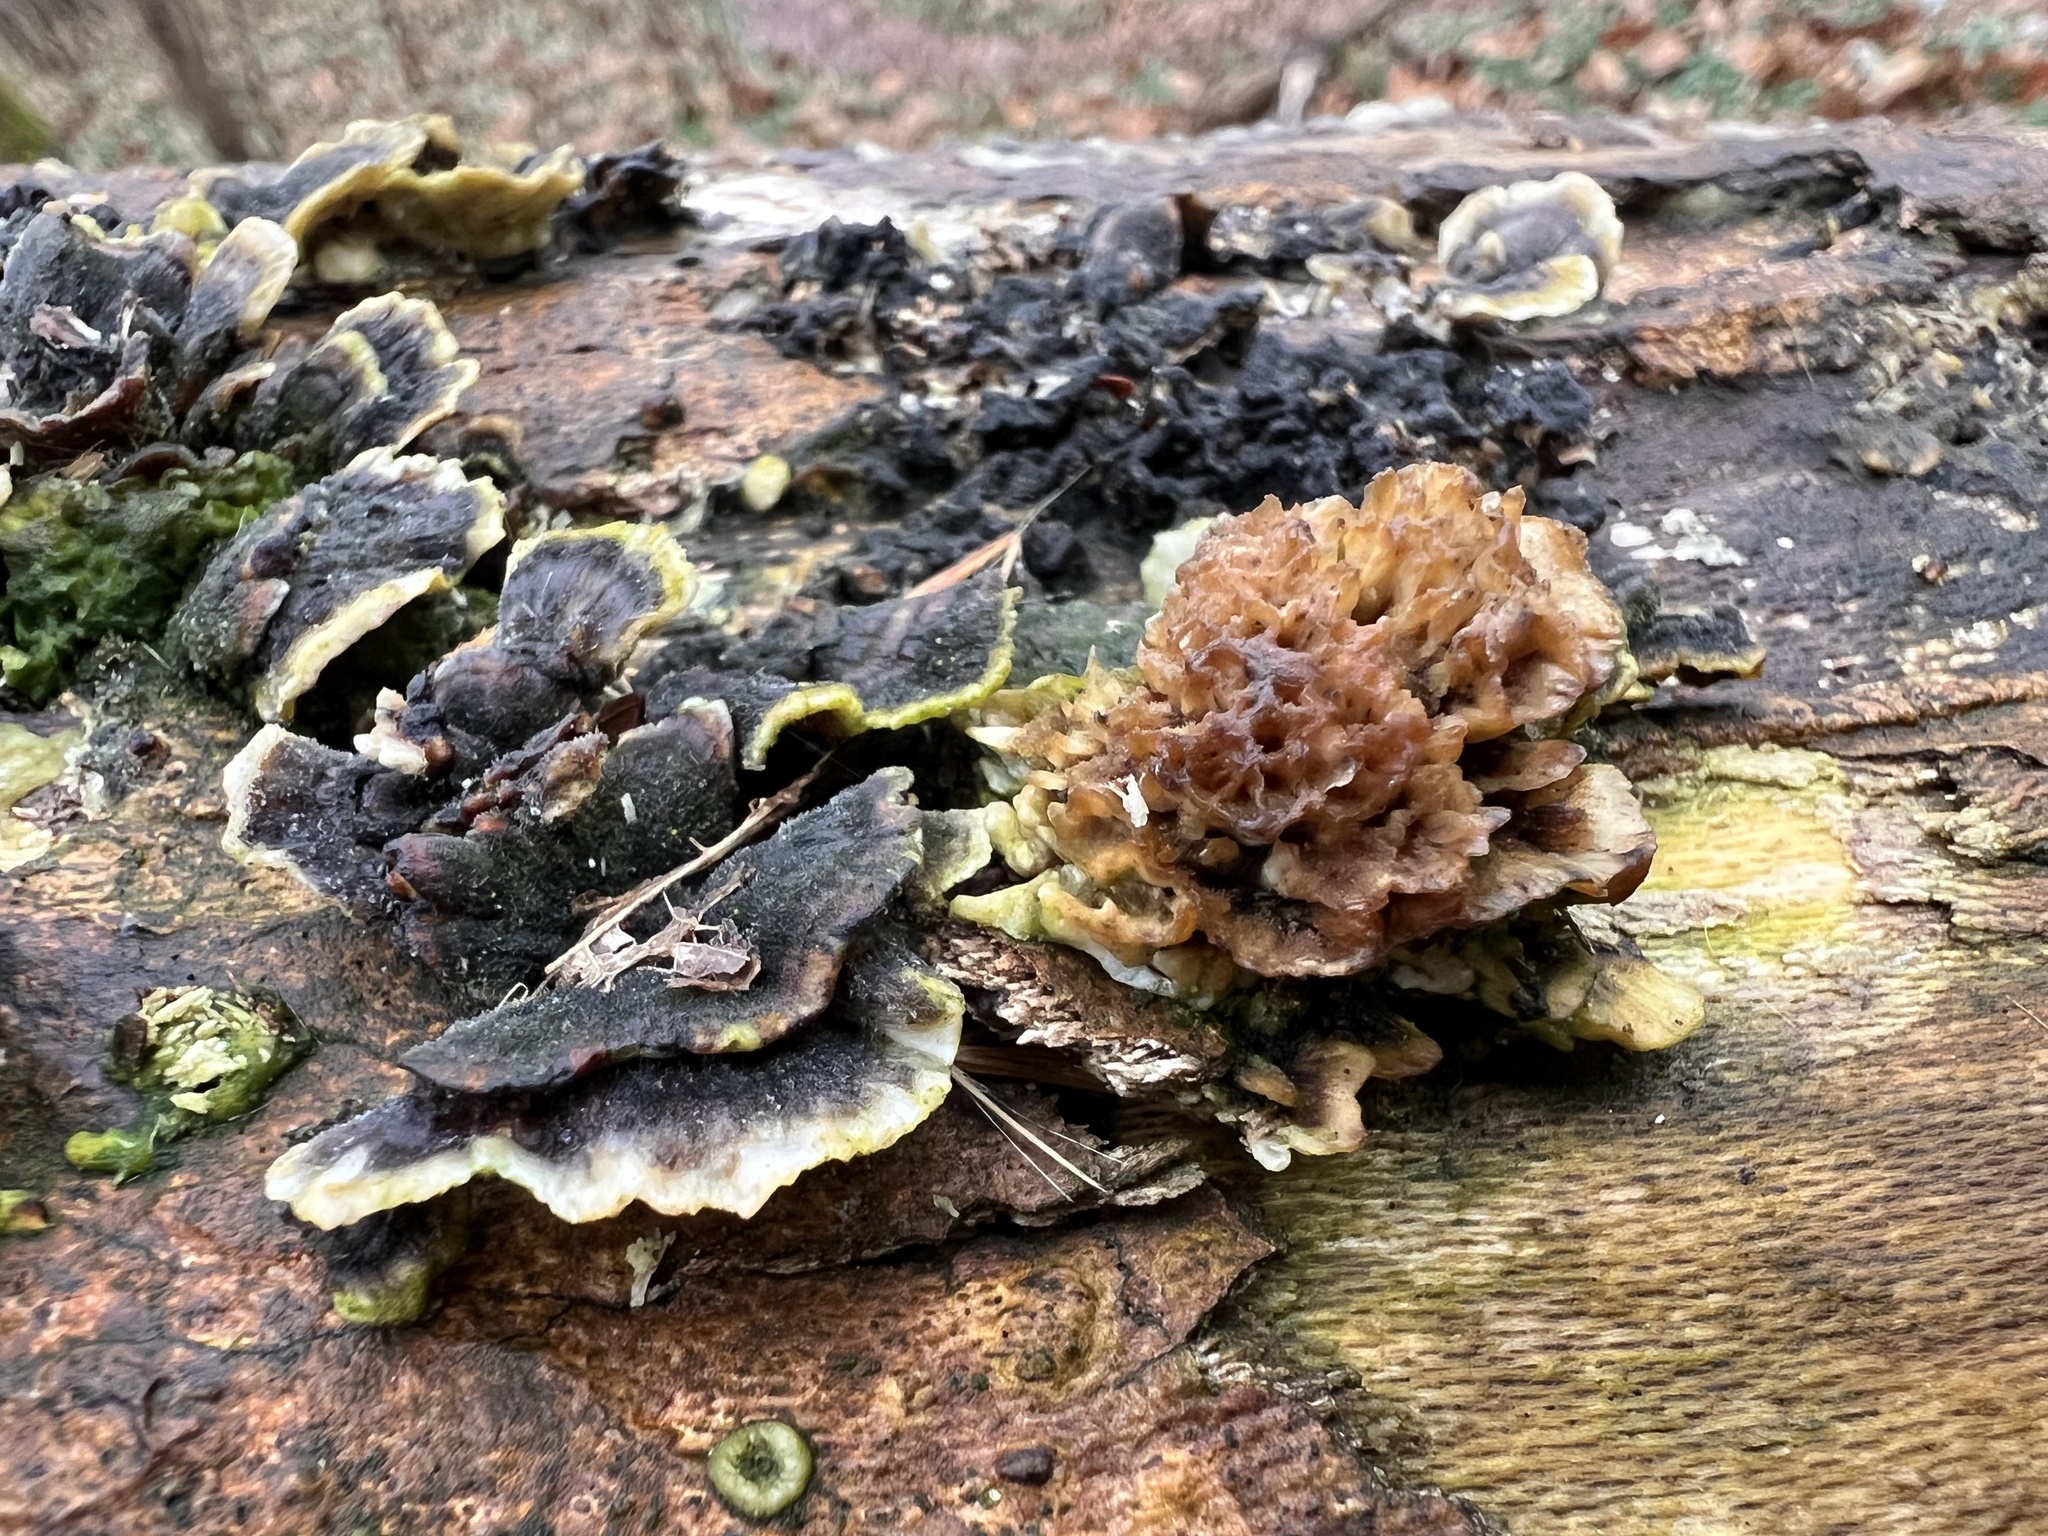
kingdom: Fungi
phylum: Basidiomycota
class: Agaricomycetes
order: Polyporales
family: Polyporaceae
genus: Trametes
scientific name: Trametes versicolor
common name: Turkeytail
